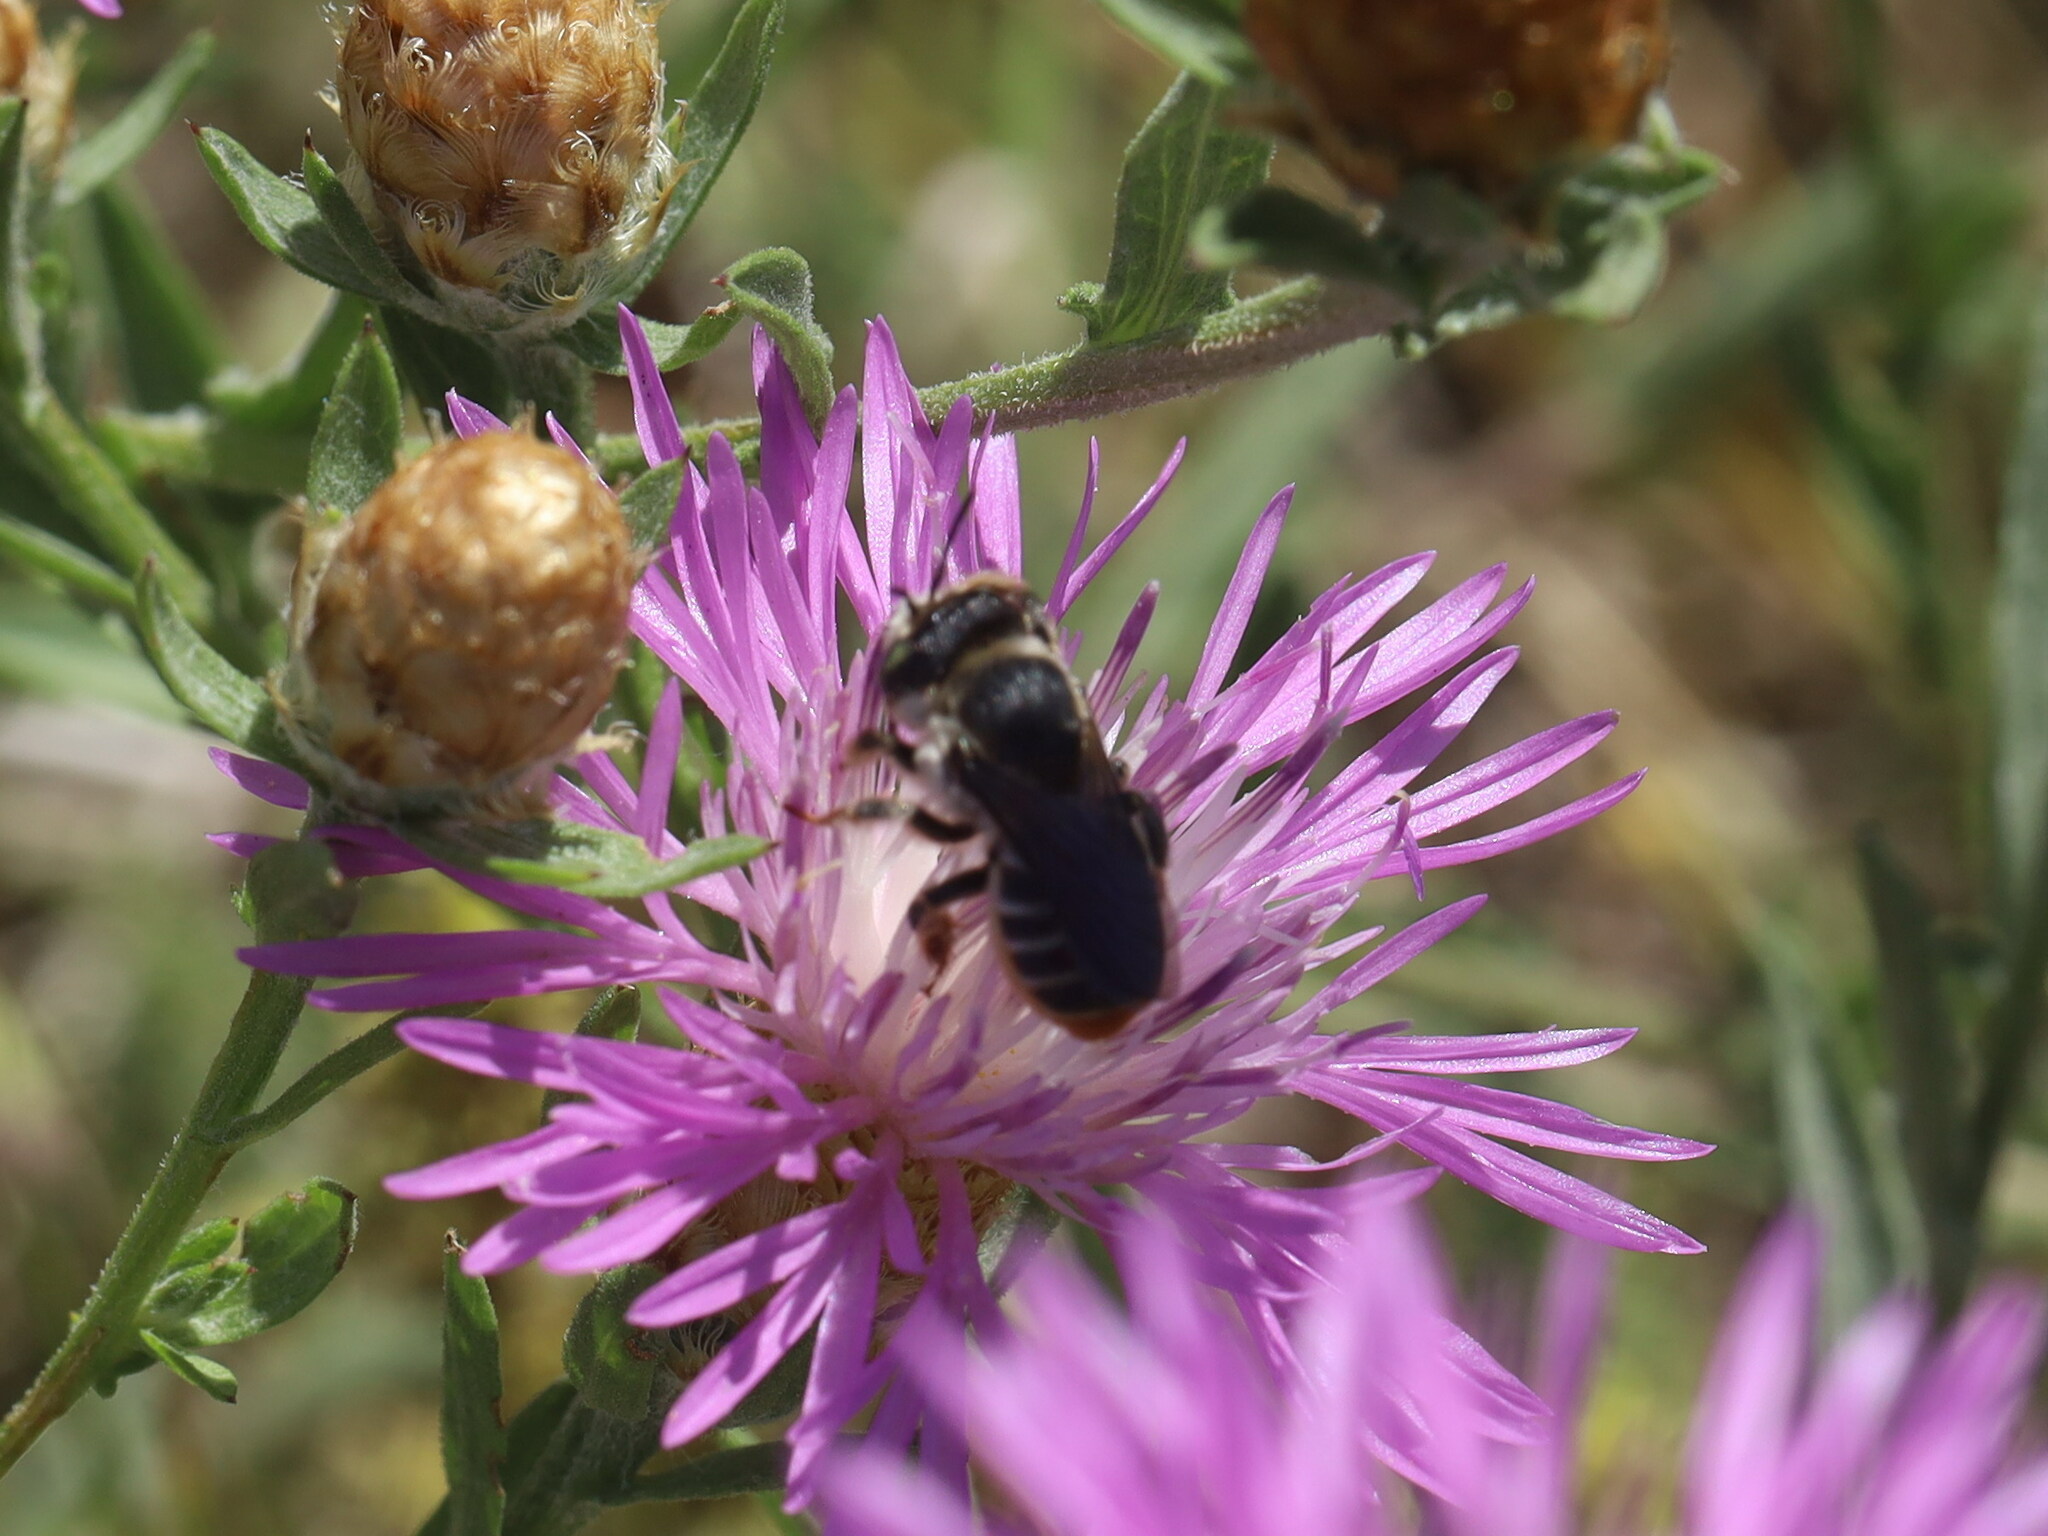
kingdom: Animalia
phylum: Arthropoda
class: Insecta
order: Hymenoptera
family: Megachilidae
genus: Lithurgus
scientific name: Lithurgus chrysurus
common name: Wood-boring bee
